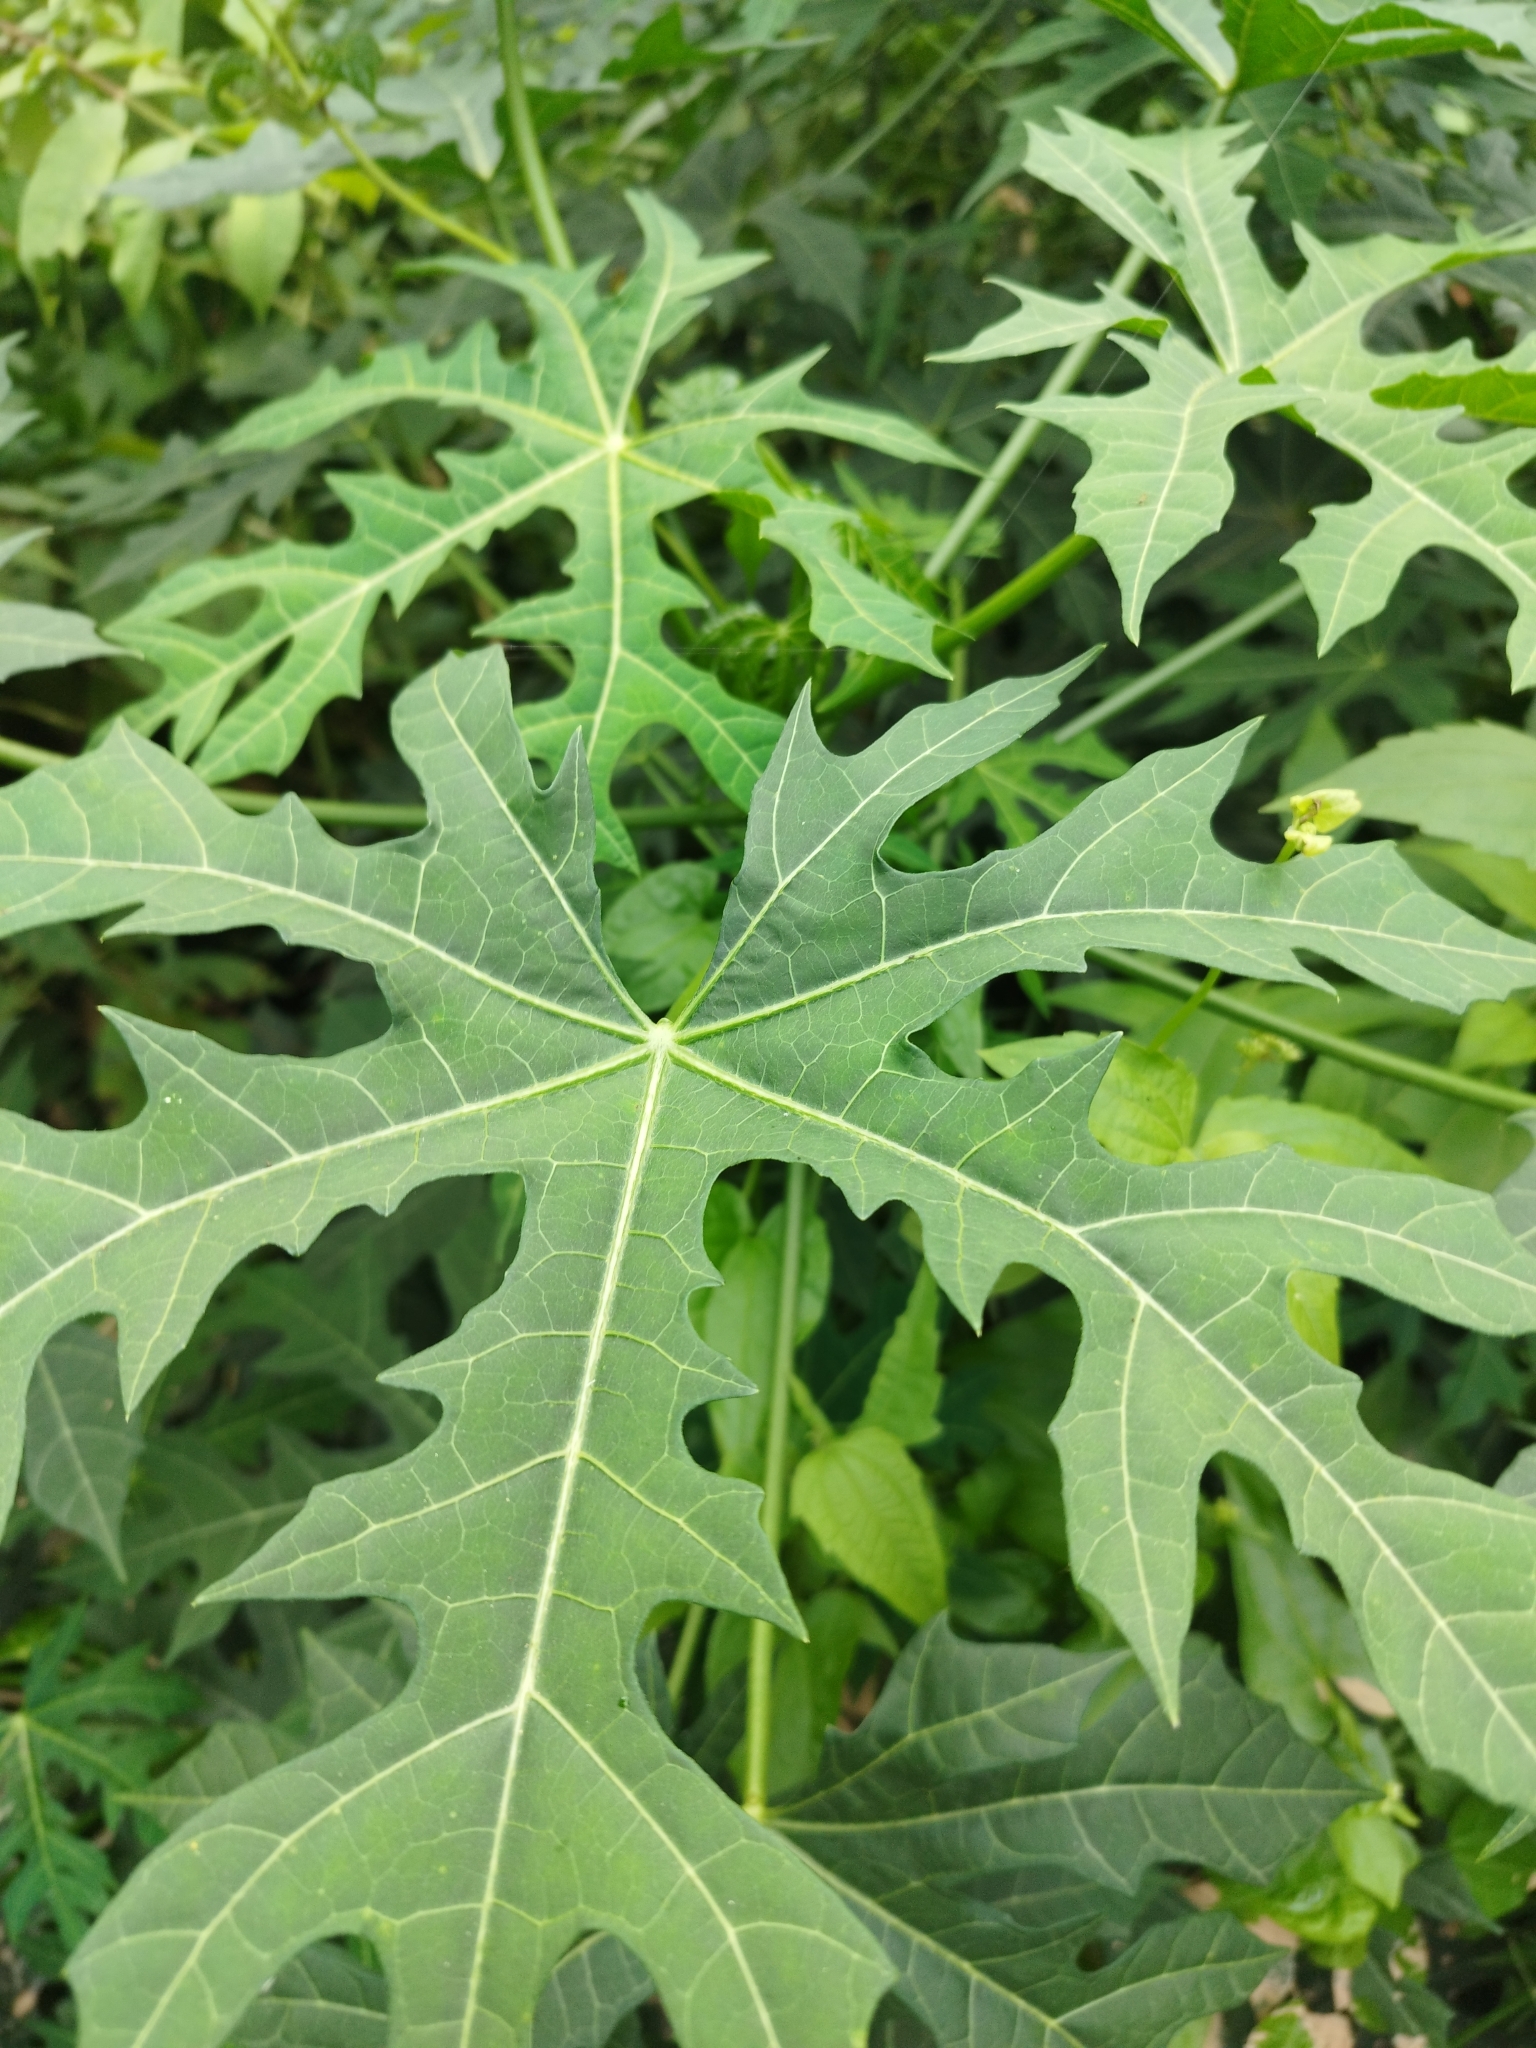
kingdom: Plantae
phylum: Tracheophyta
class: Magnoliopsida
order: Malpighiales
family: Euphorbiaceae
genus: Cnidoscolus
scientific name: Cnidoscolus aconitifolius
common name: Cabbage-star
